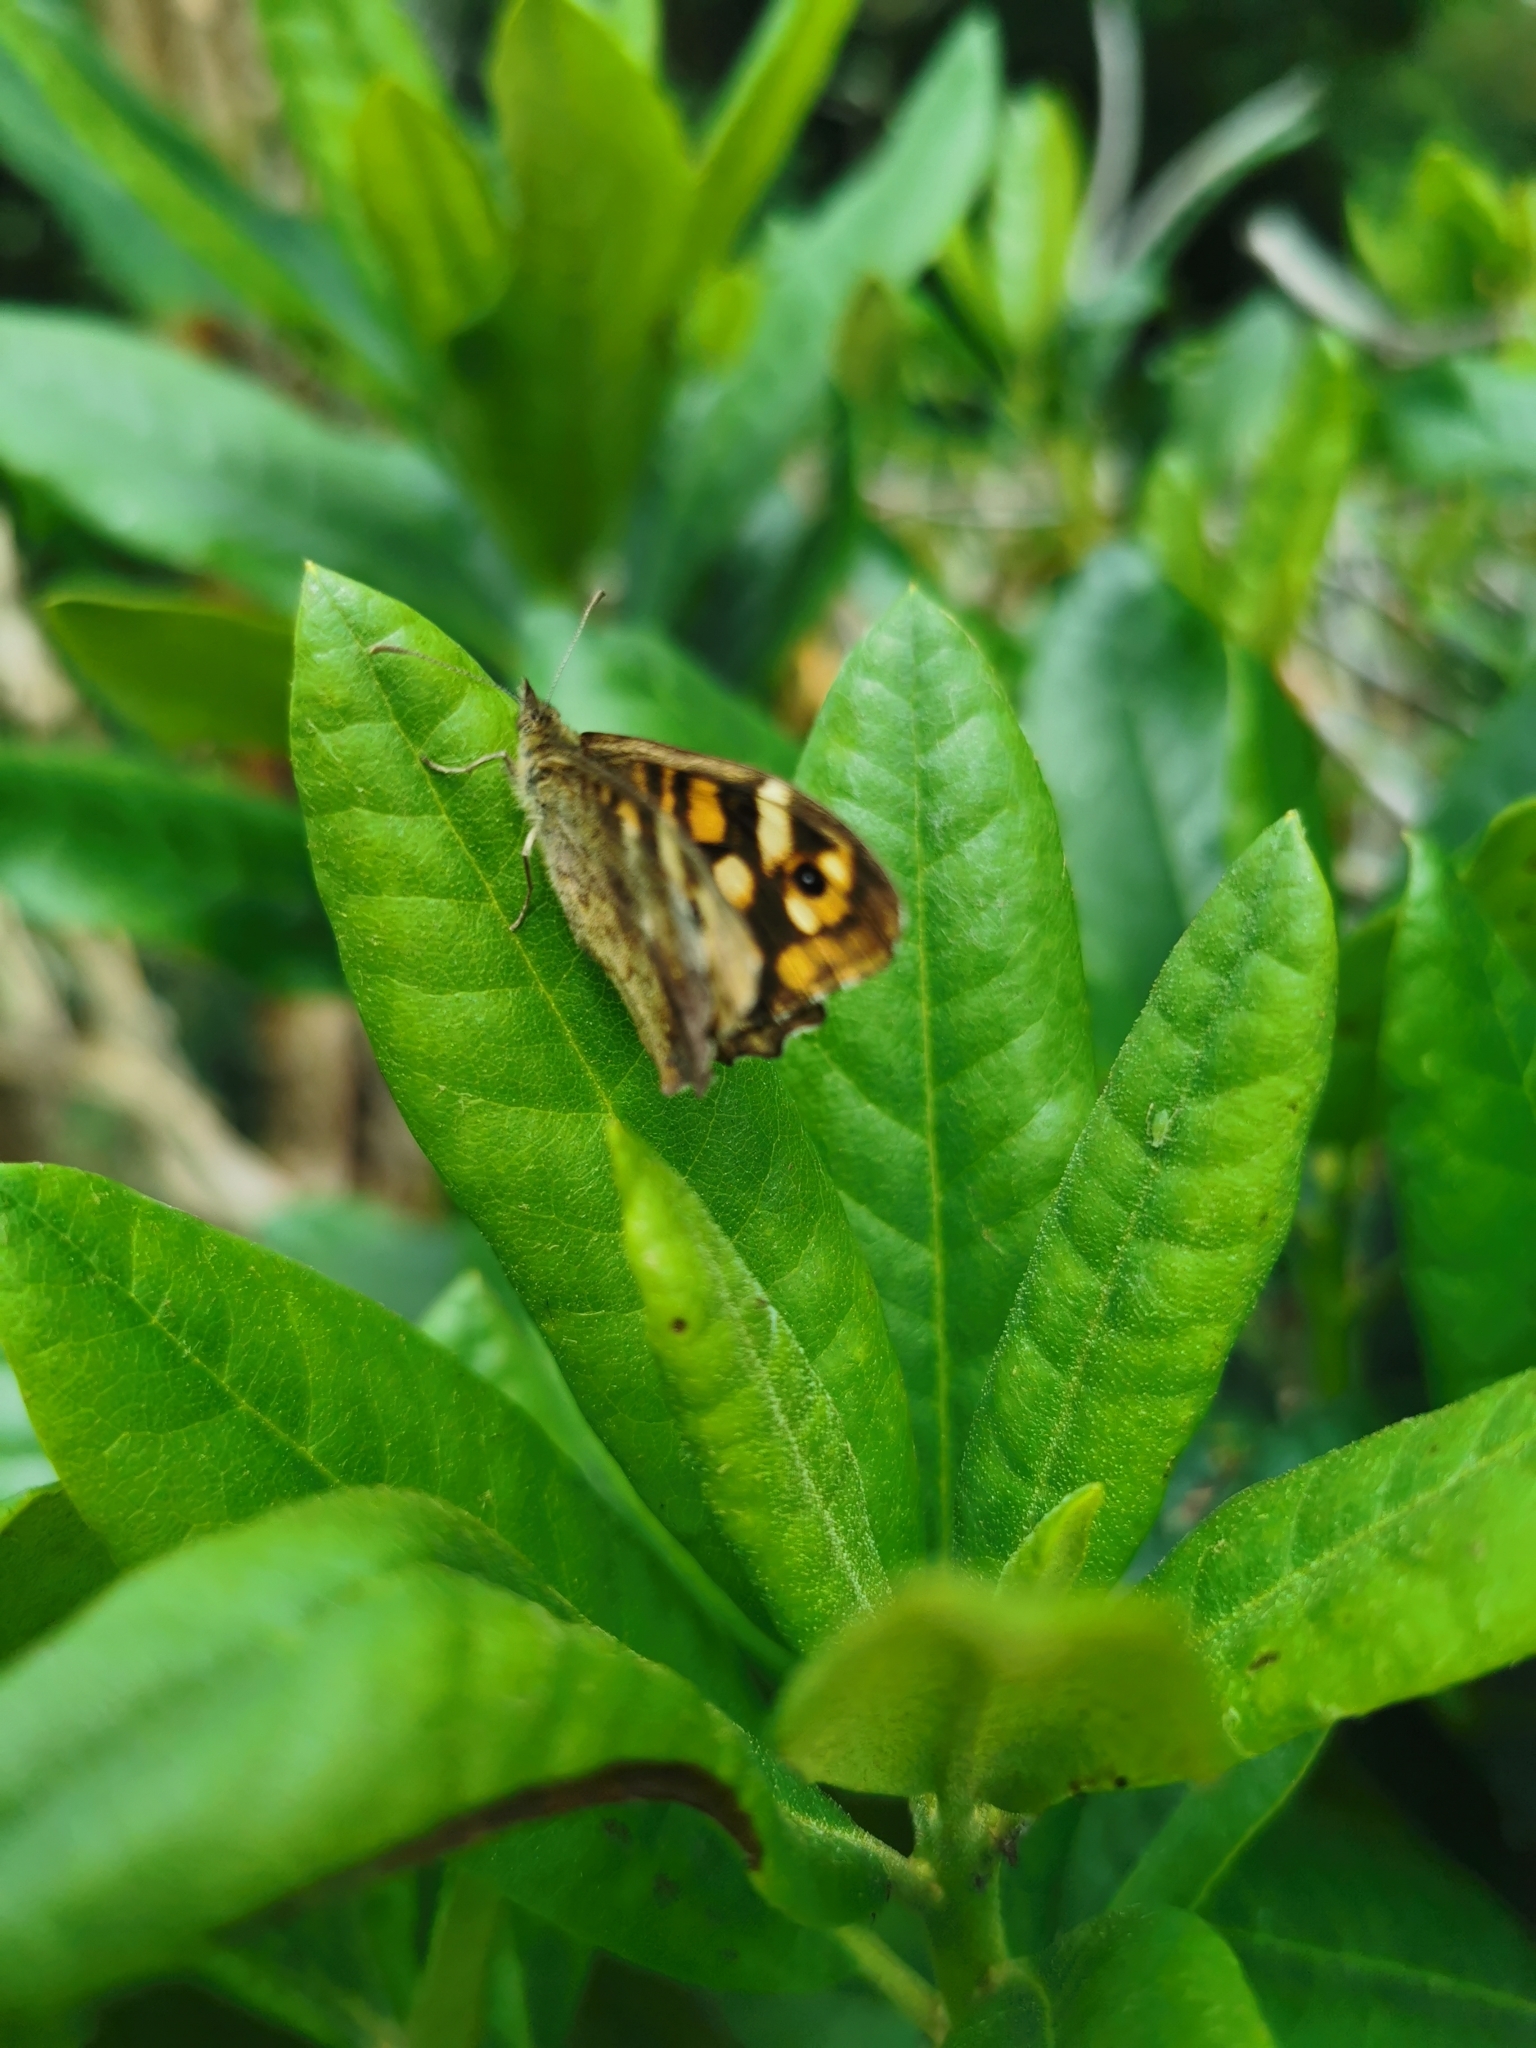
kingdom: Animalia
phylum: Arthropoda
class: Insecta
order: Lepidoptera
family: Nymphalidae
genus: Pararge
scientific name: Pararge aegeria
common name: Speckled wood
